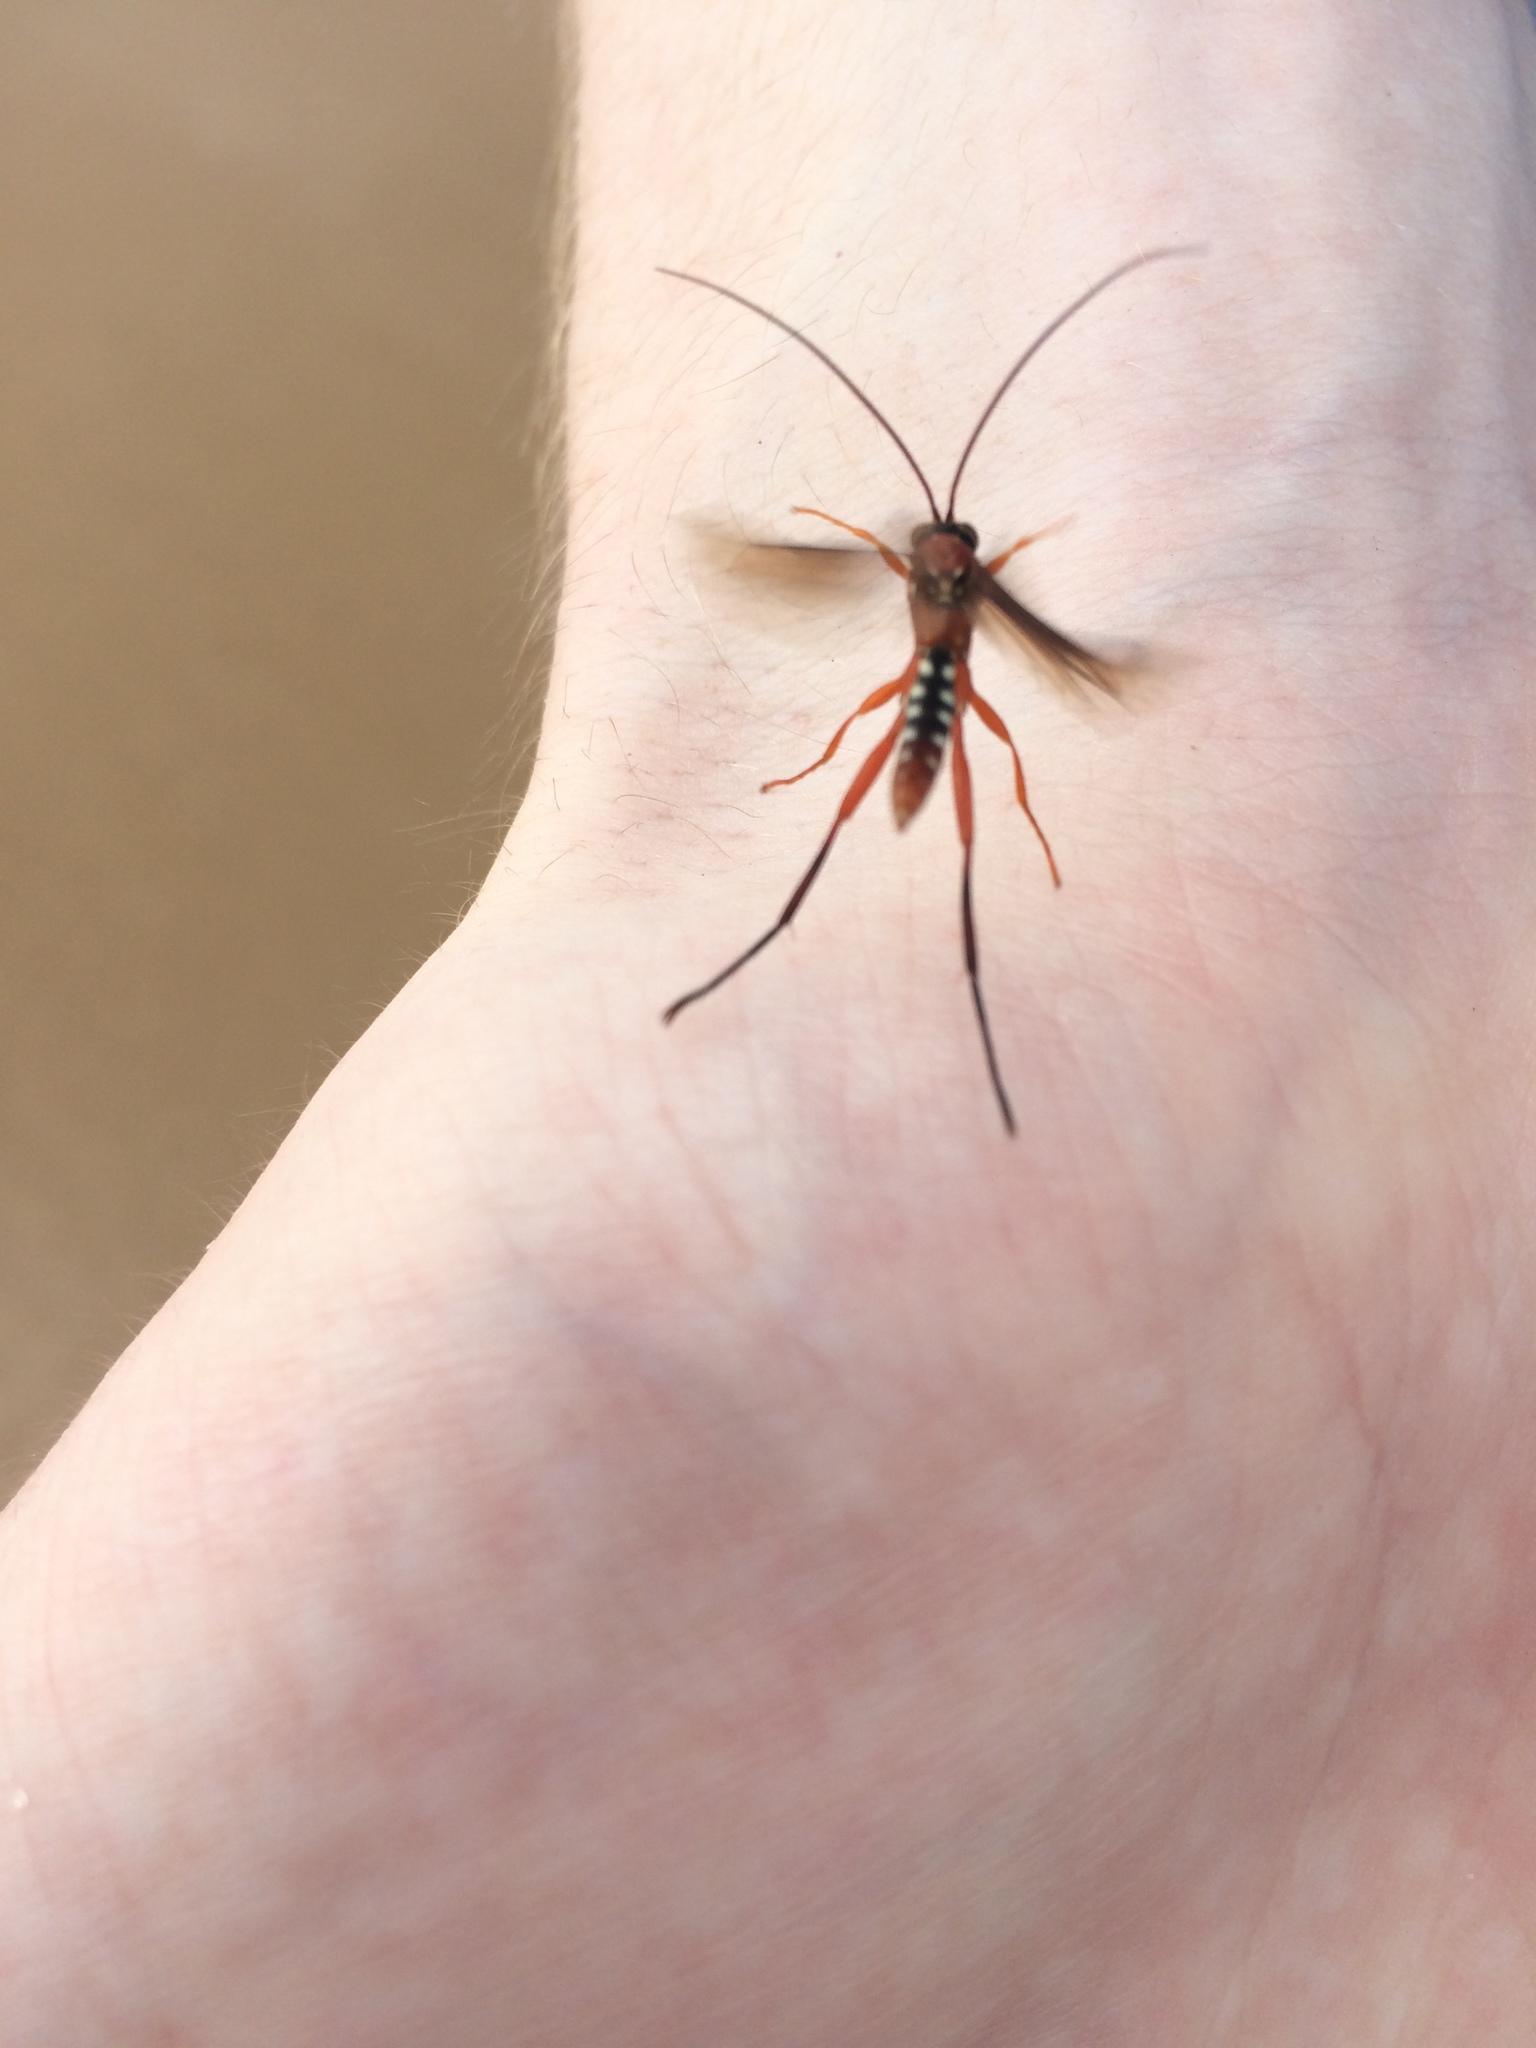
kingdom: Animalia
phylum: Arthropoda
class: Insecta
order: Hymenoptera
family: Ichneumonidae
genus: Lissopimpla
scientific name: Lissopimpla excelsa
